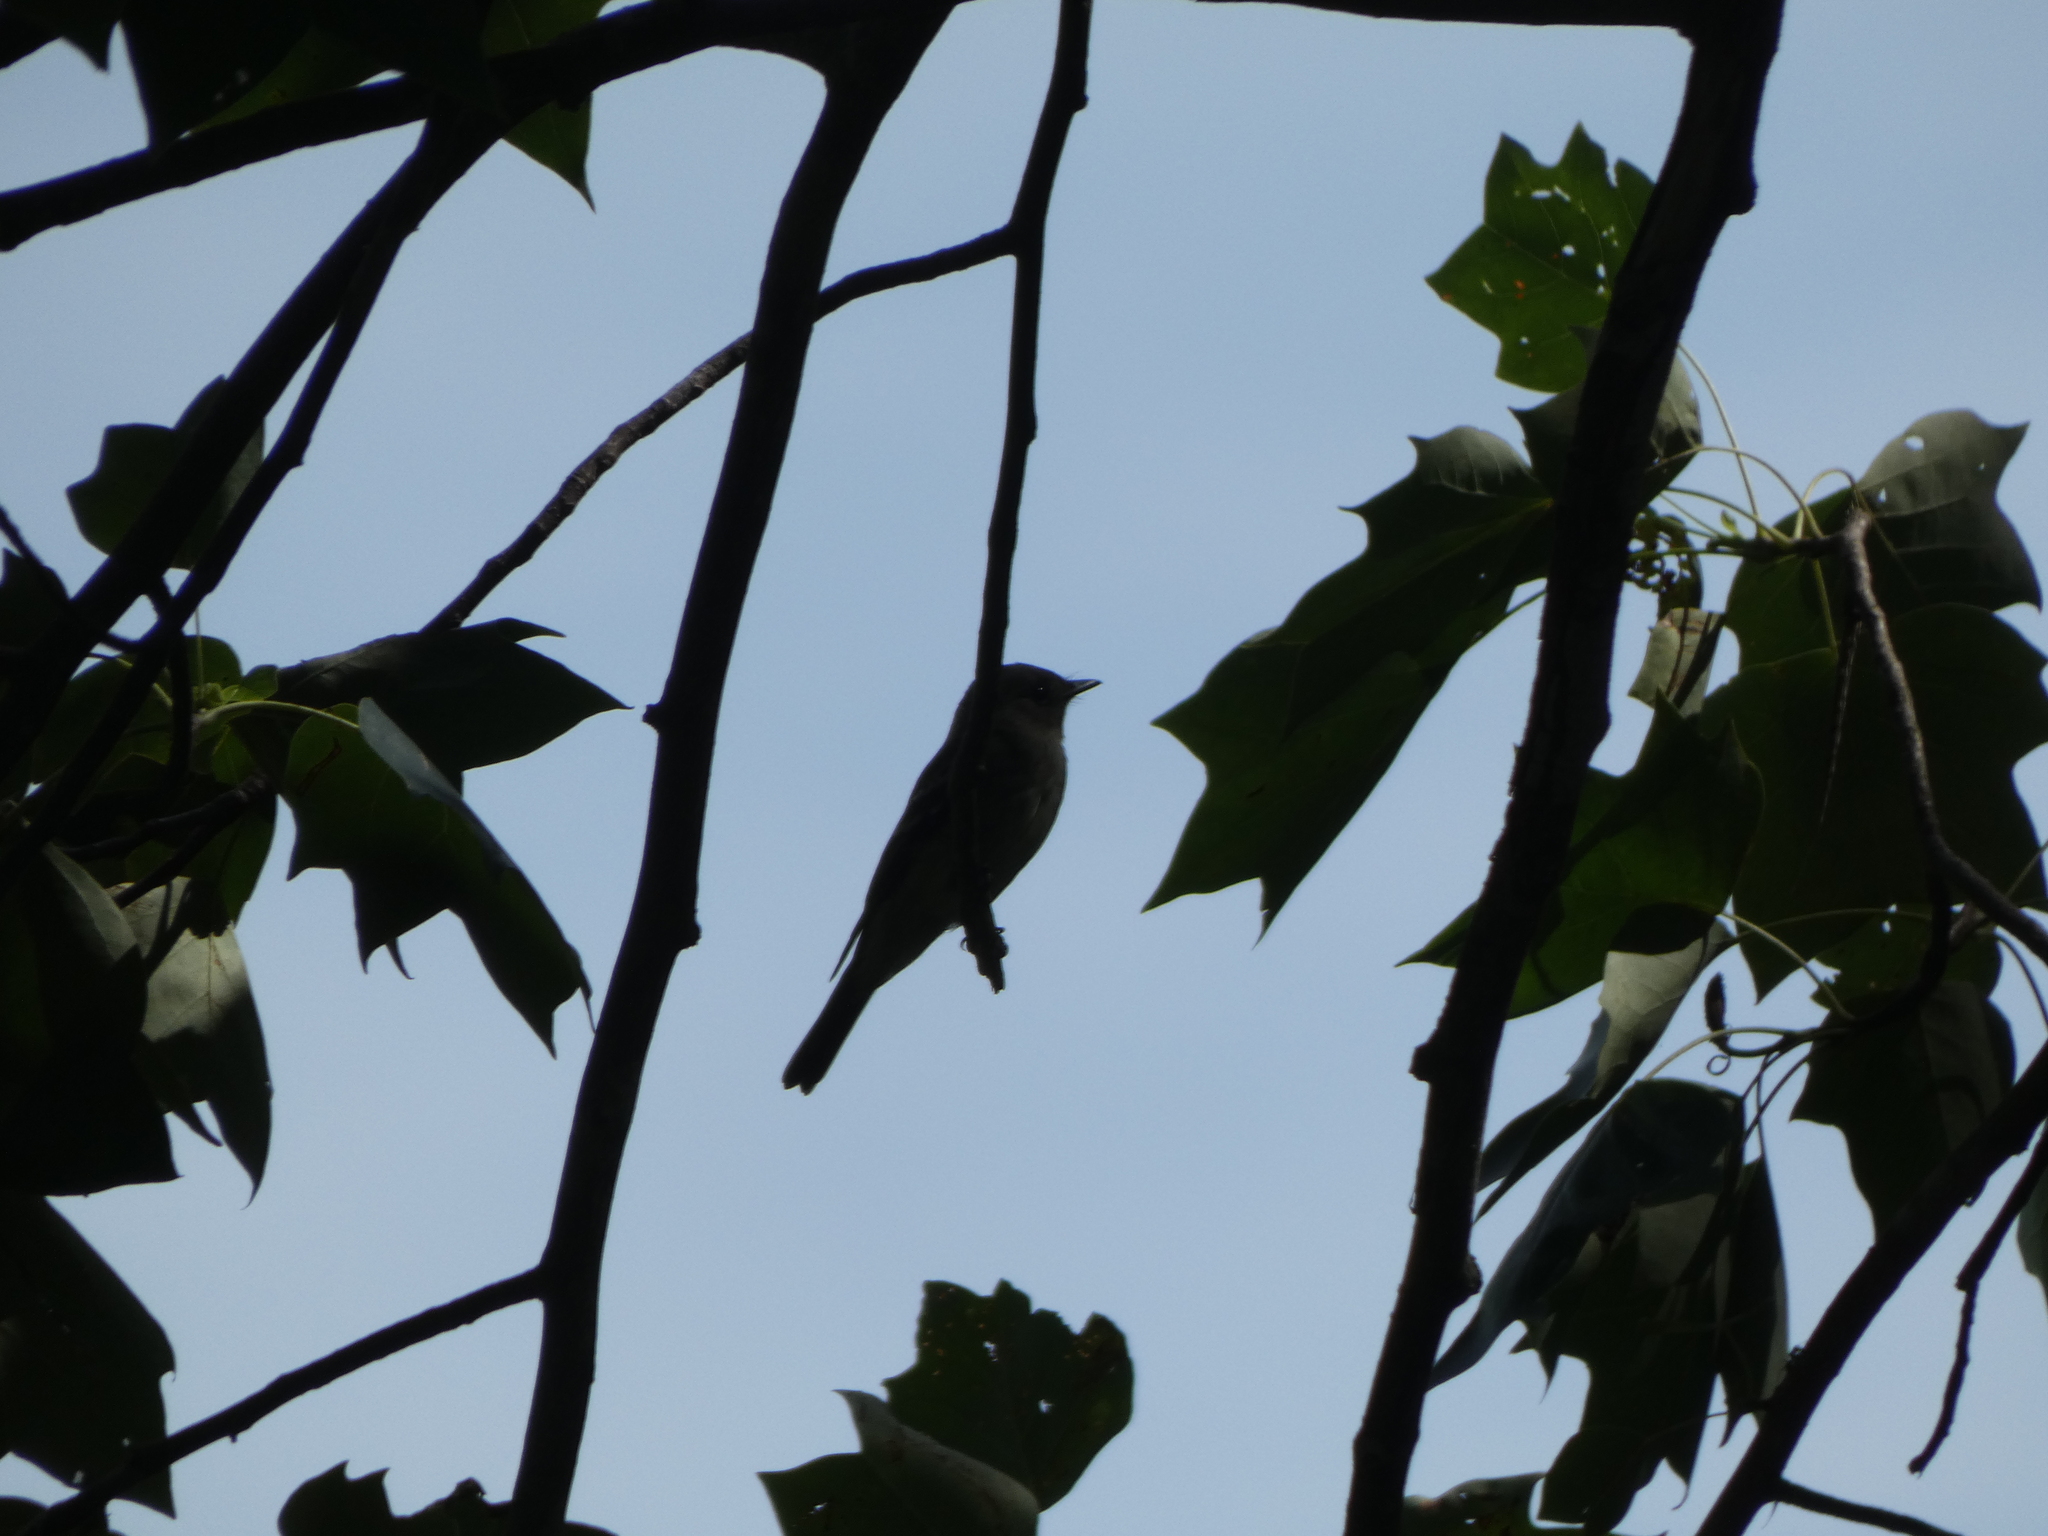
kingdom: Animalia
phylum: Chordata
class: Aves
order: Passeriformes
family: Tyrannidae
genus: Contopus
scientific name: Contopus virens
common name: Eastern wood-pewee
